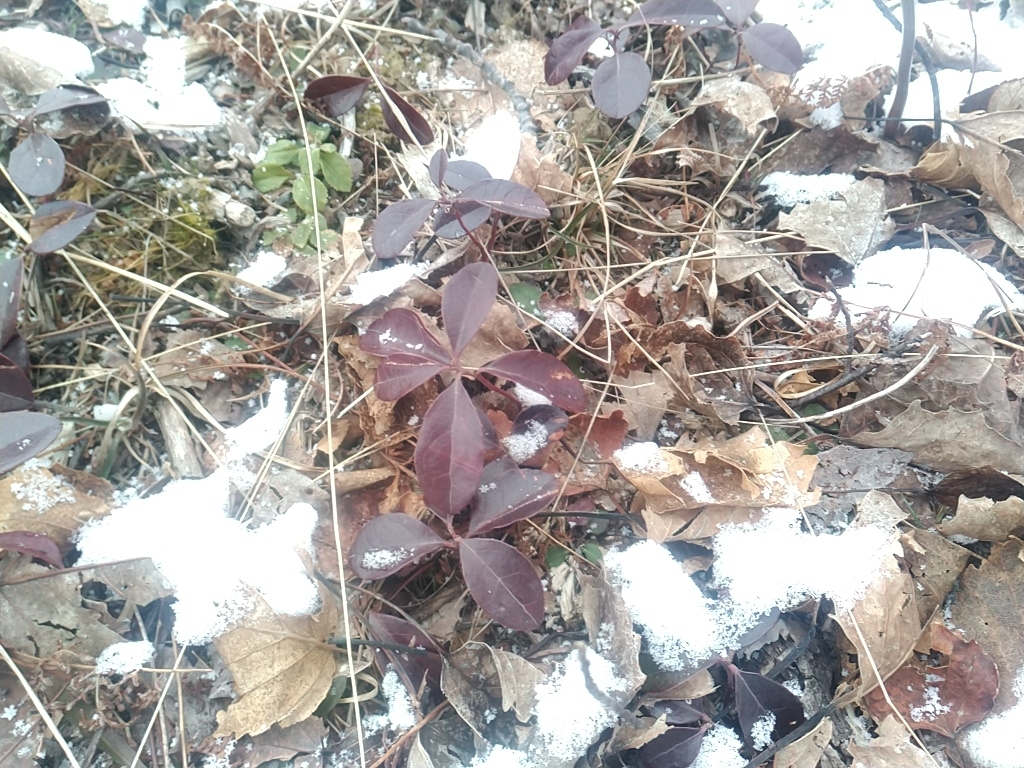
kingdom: Plantae
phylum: Tracheophyta
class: Magnoliopsida
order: Ericales
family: Ericaceae
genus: Gaultheria
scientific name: Gaultheria procumbens
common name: Checkerberry
